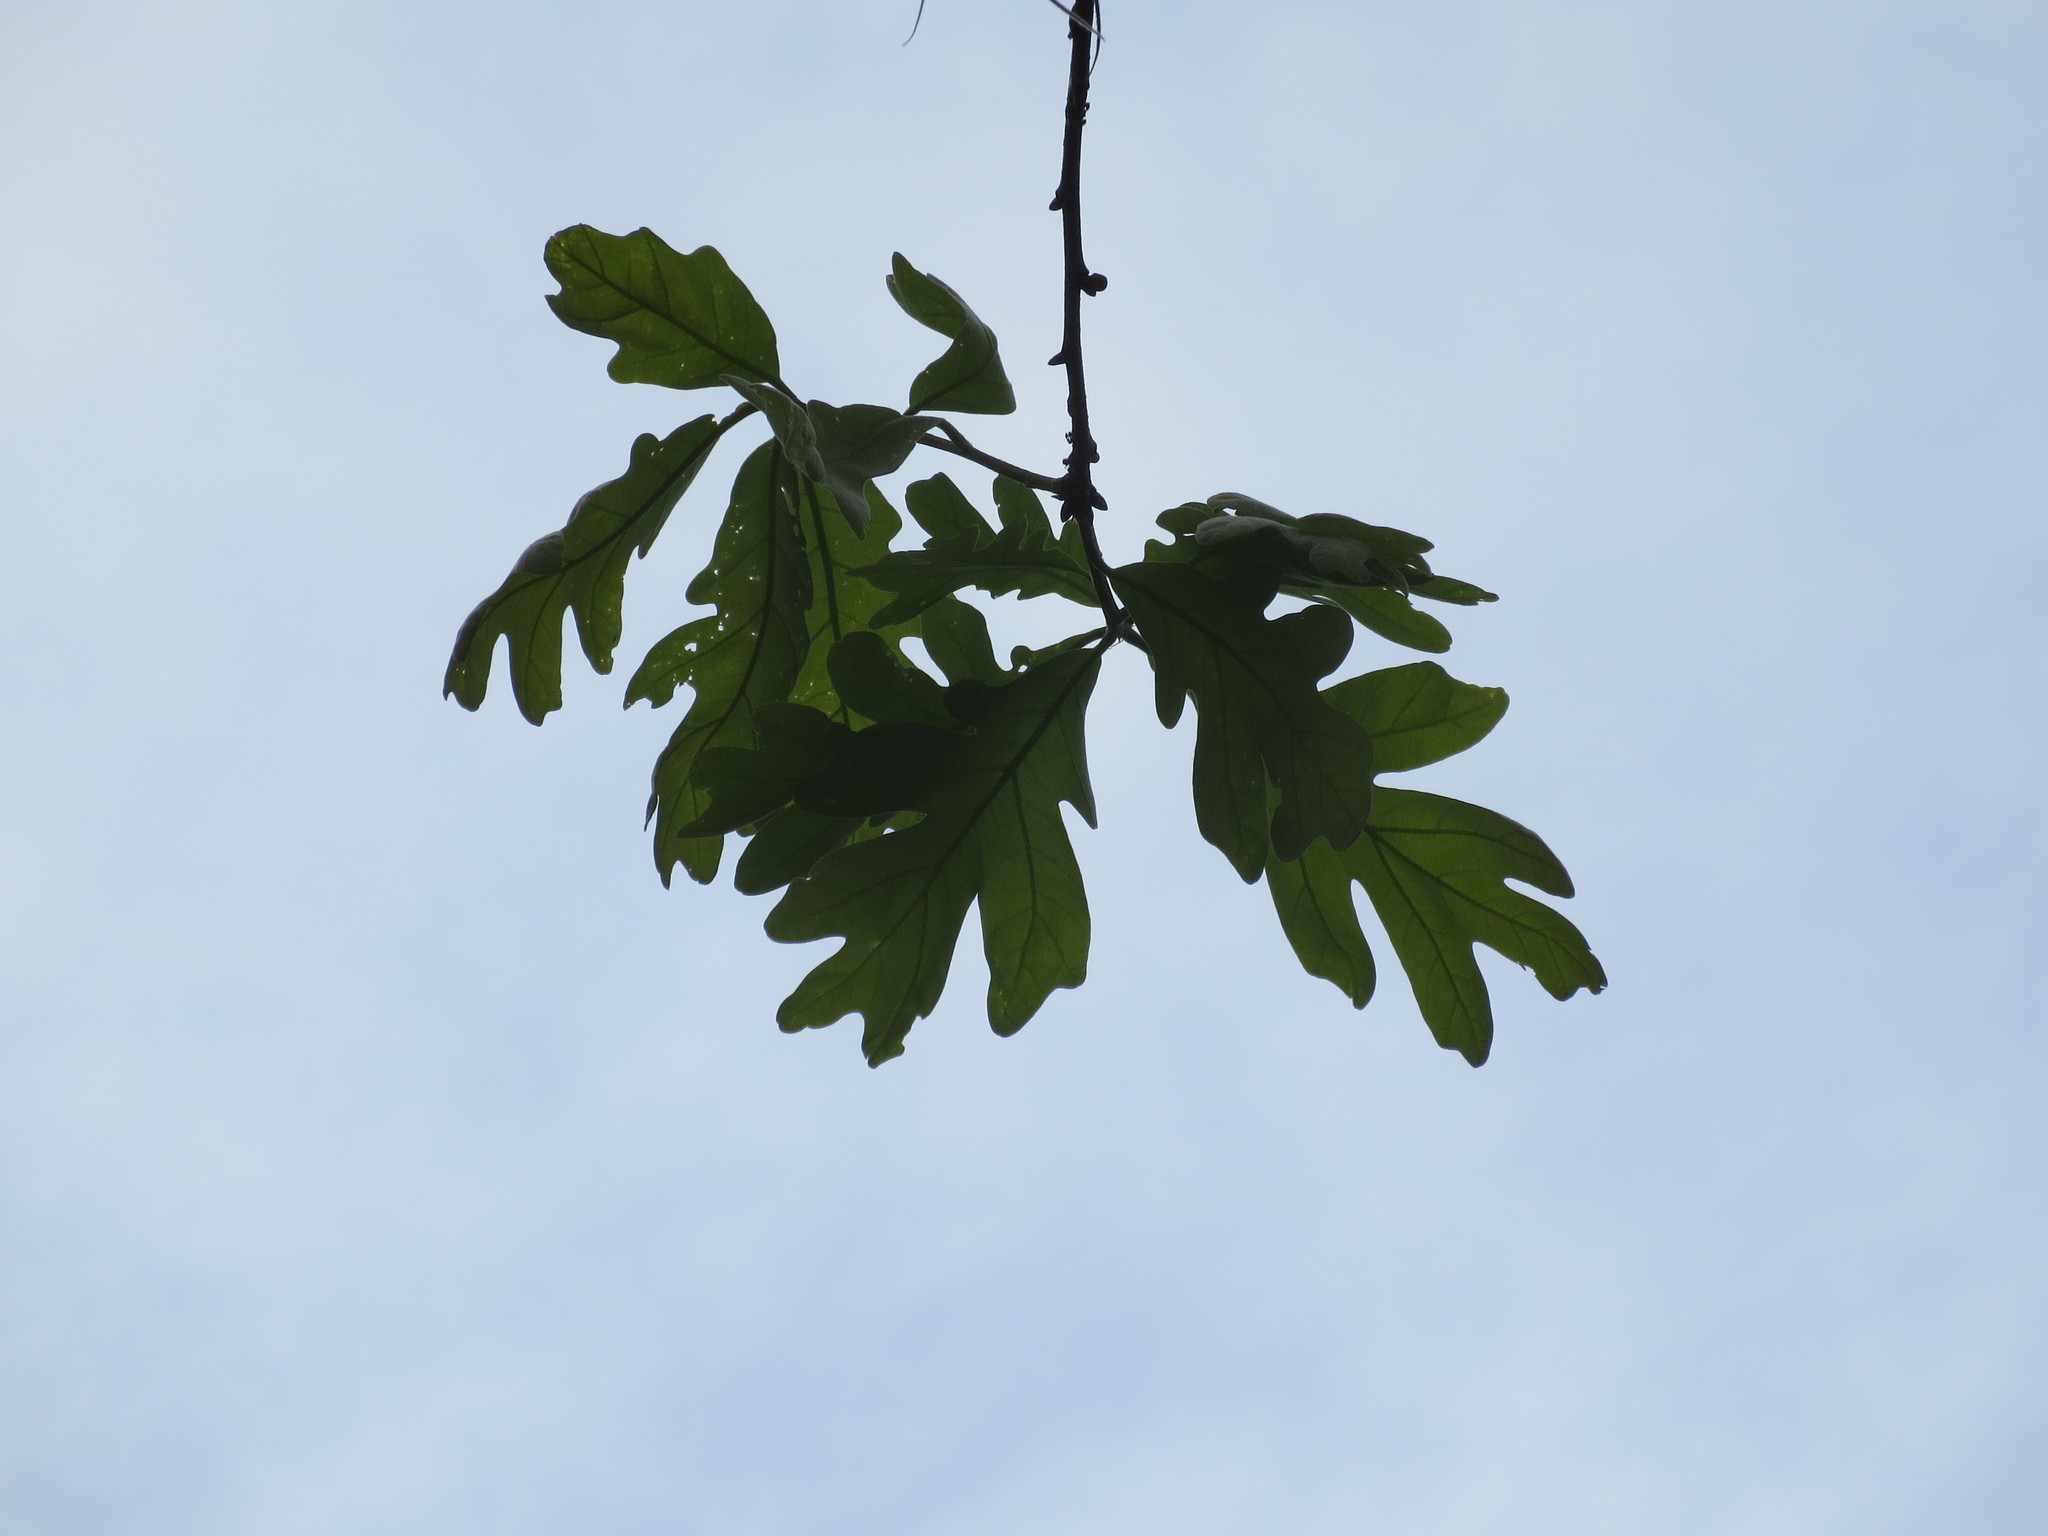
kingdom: Plantae
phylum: Tracheophyta
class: Magnoliopsida
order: Fagales
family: Fagaceae
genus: Quercus
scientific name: Quercus alba
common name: White oak
